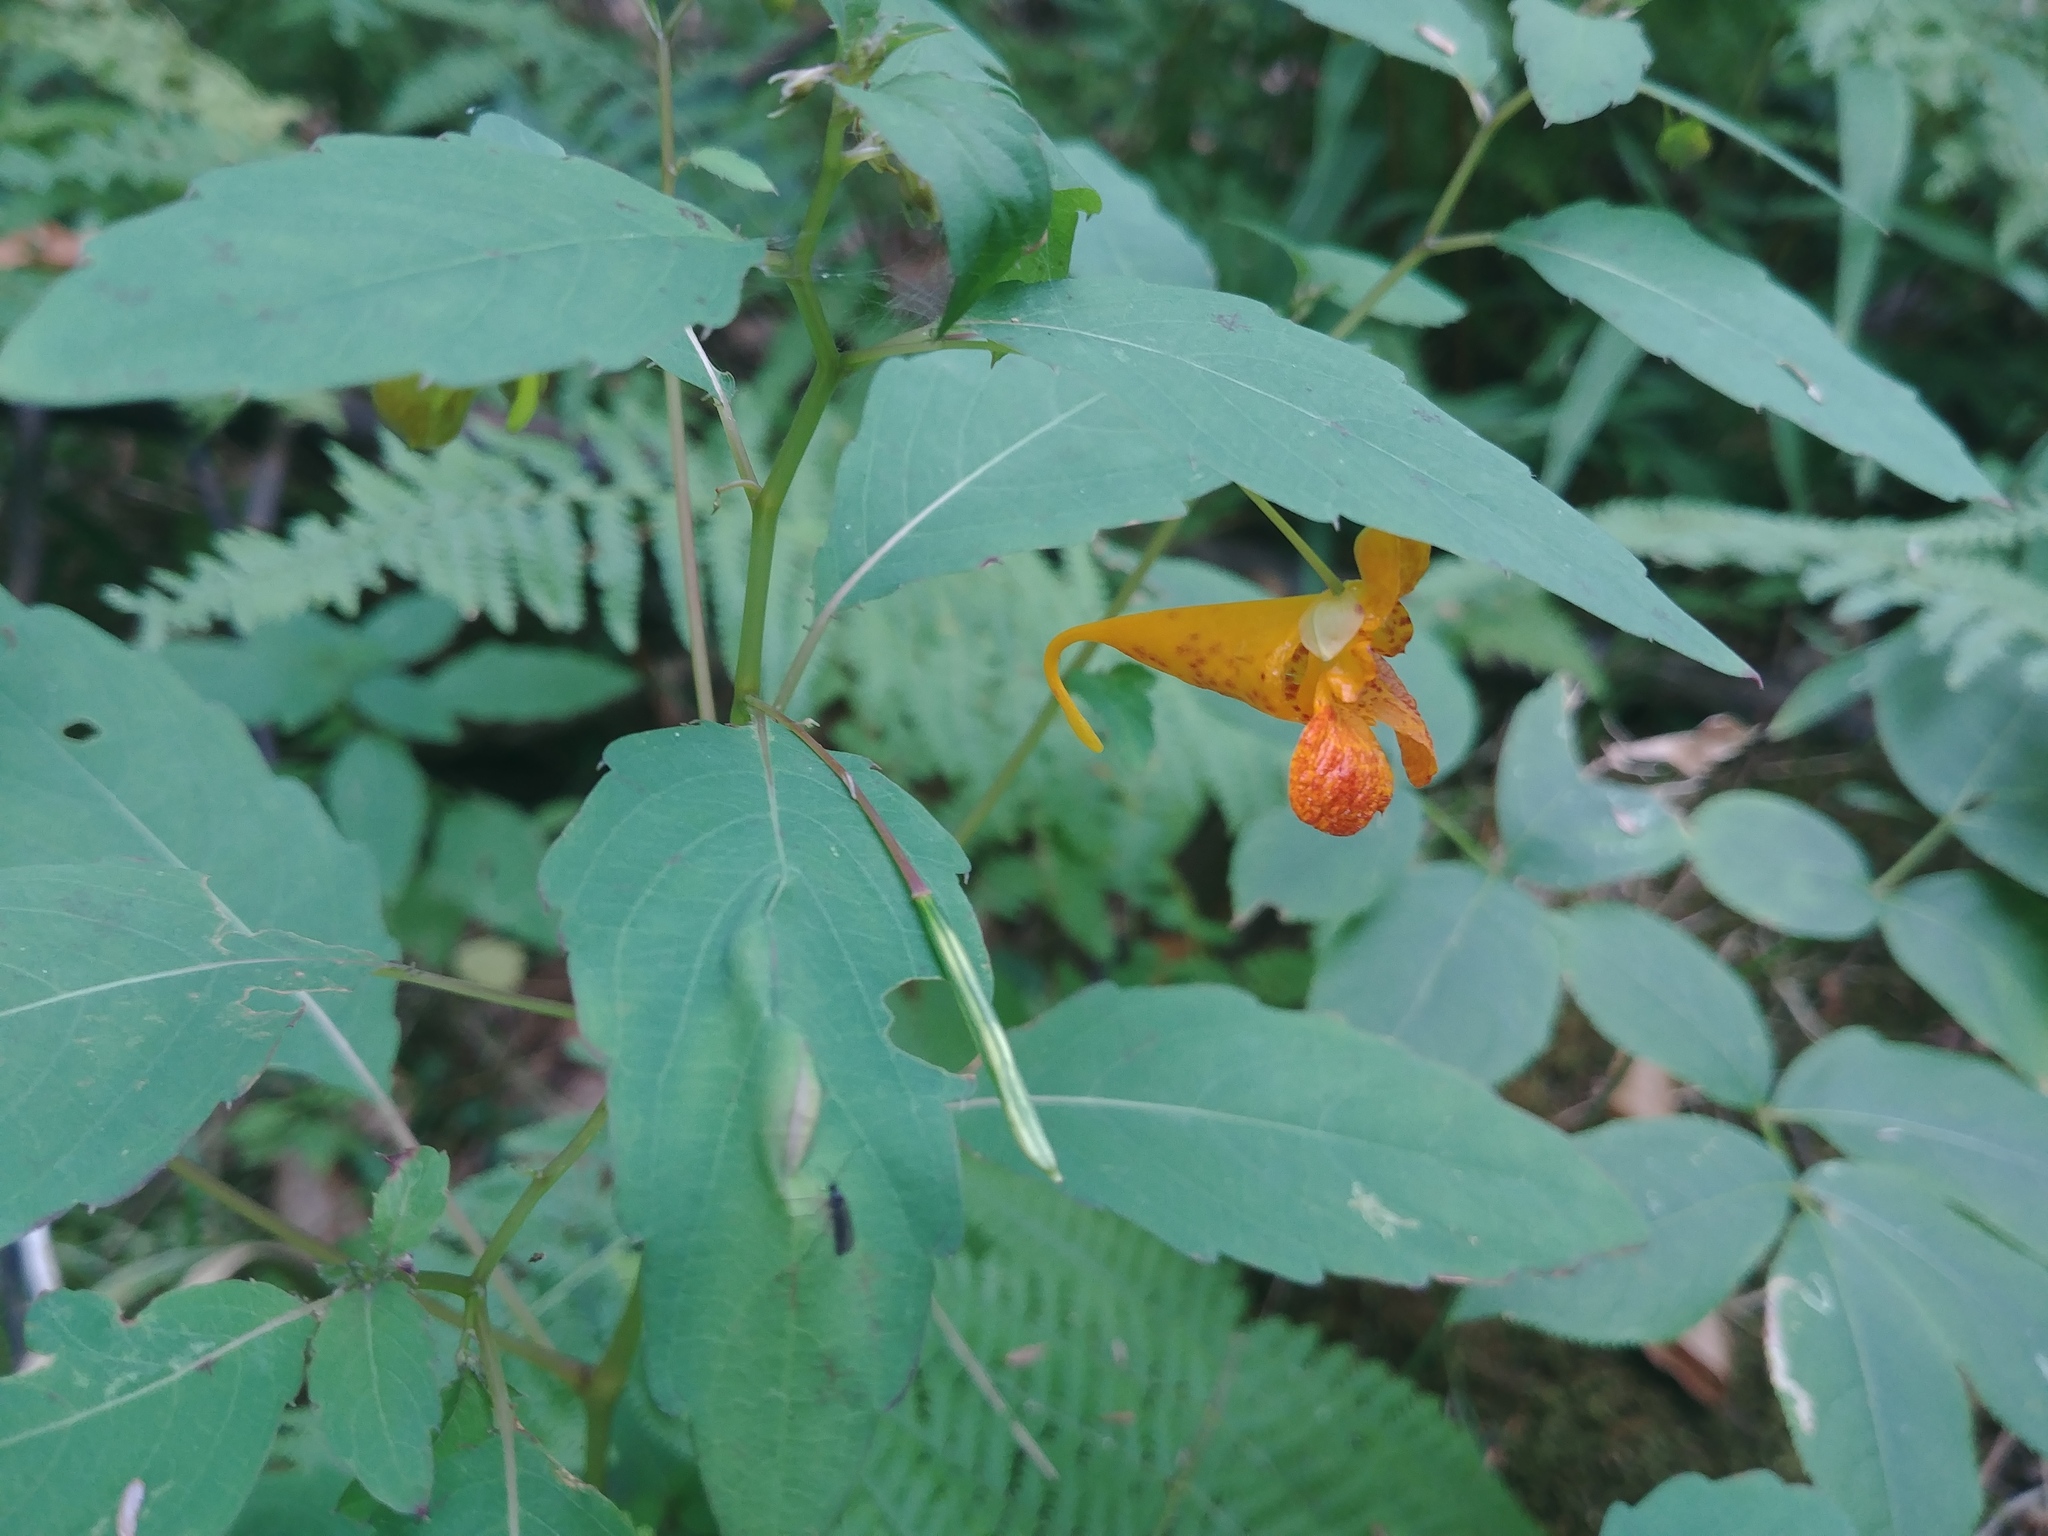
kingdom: Plantae
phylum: Tracheophyta
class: Magnoliopsida
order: Ericales
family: Balsaminaceae
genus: Impatiens
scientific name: Impatiens capensis
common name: Orange balsam
